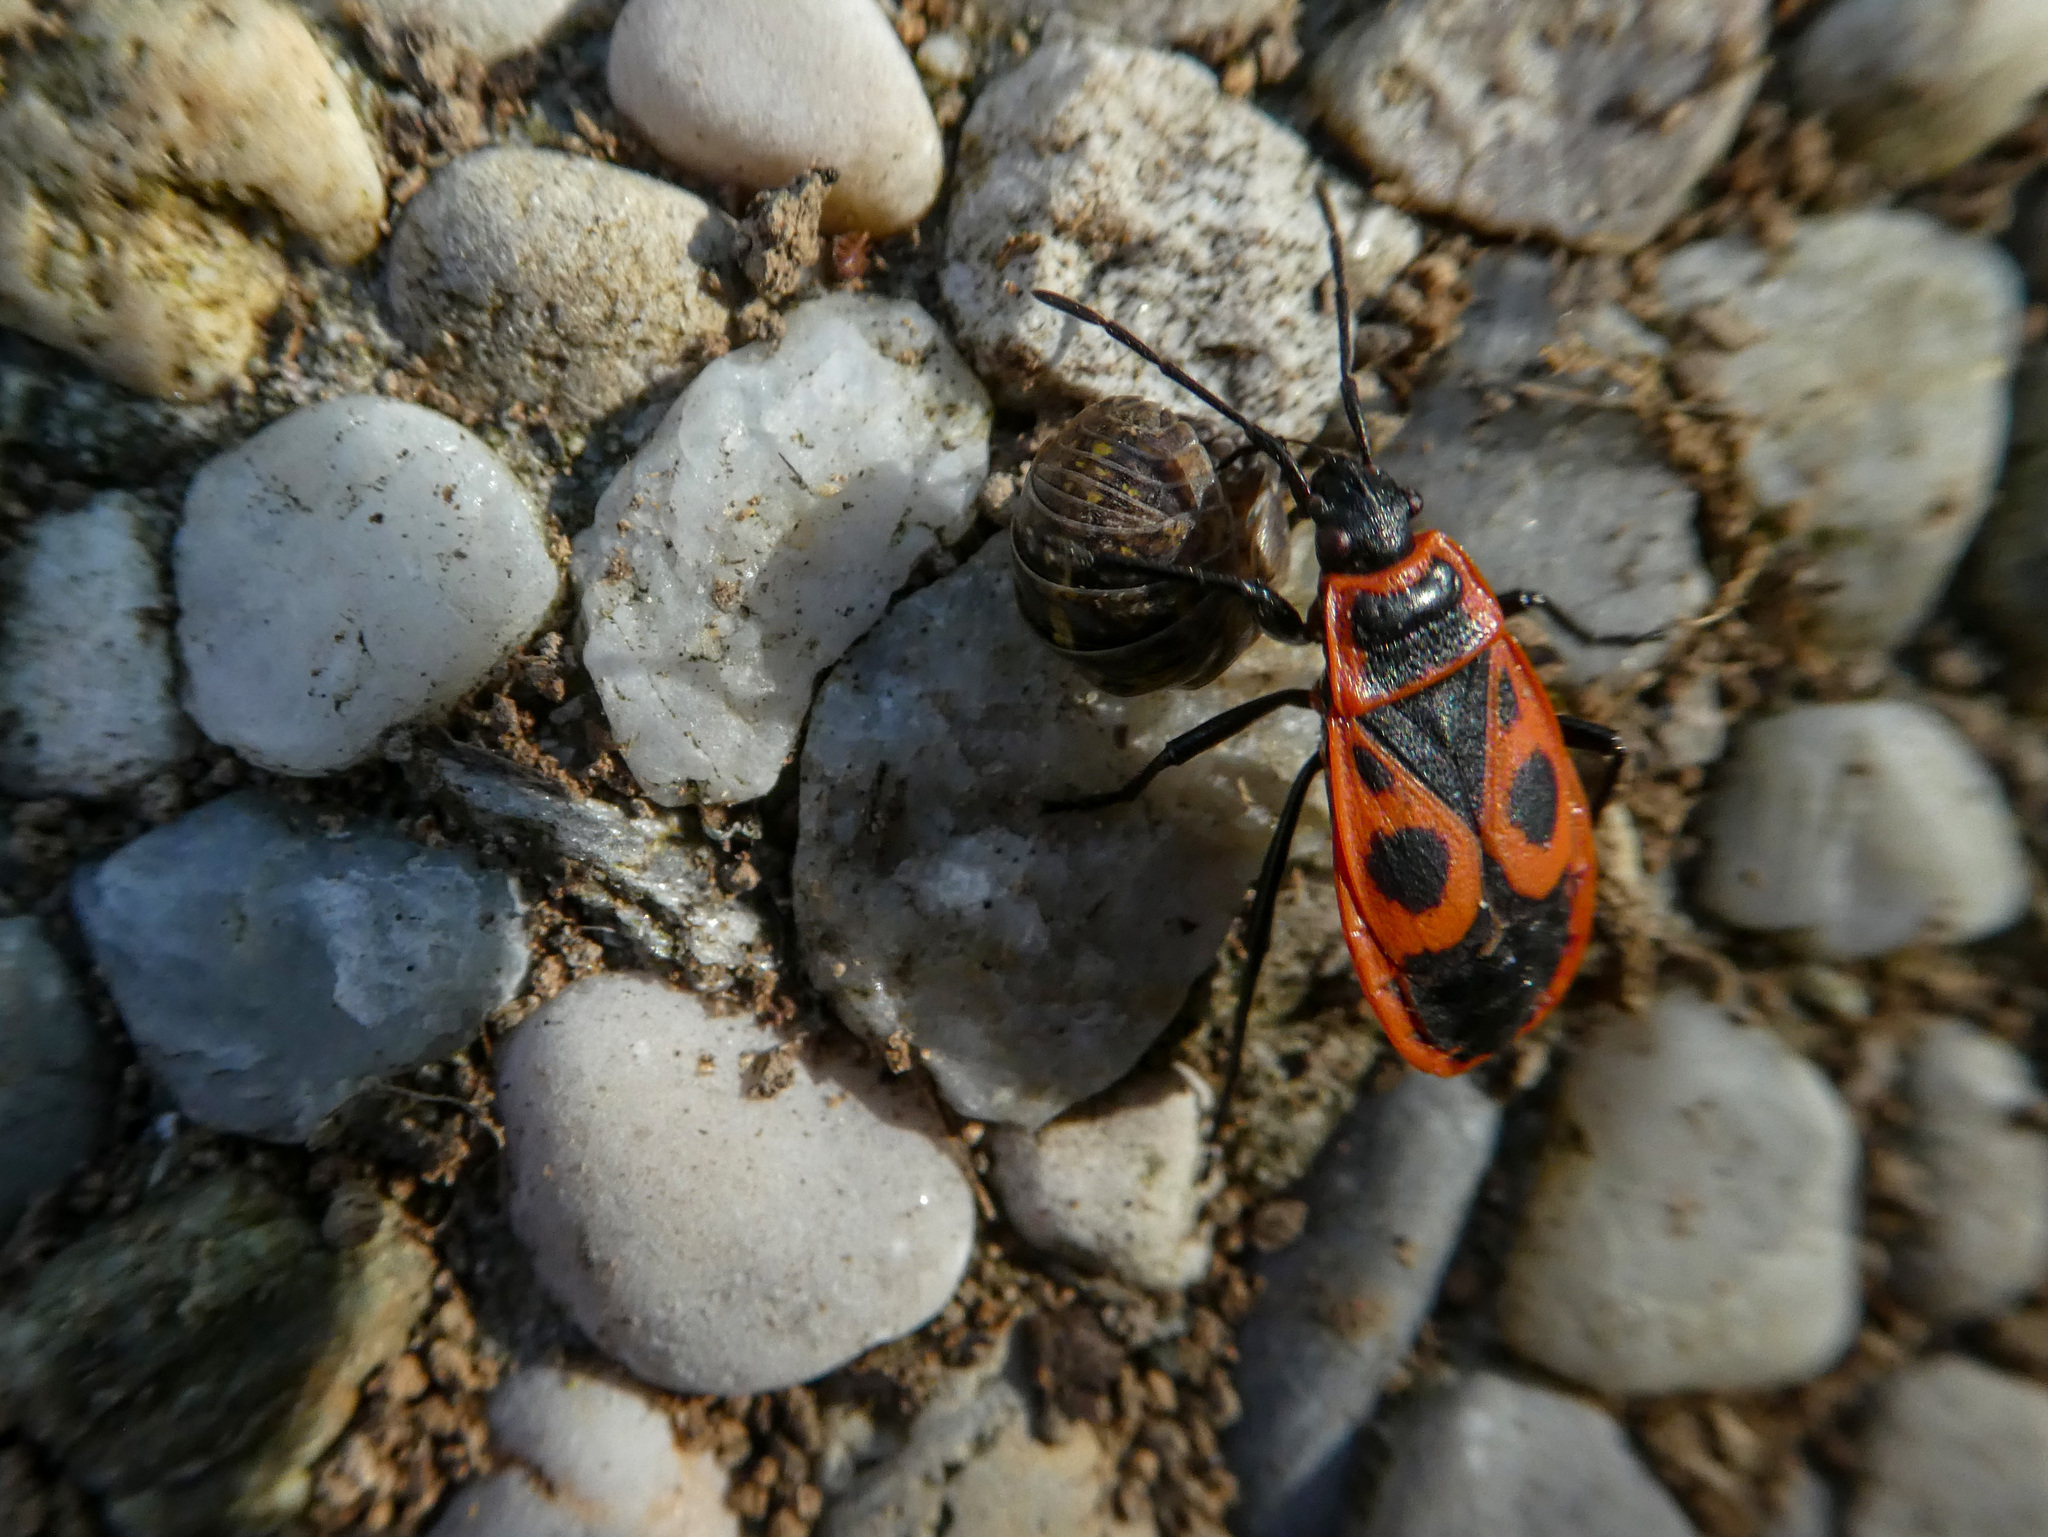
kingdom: Animalia
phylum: Arthropoda
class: Insecta
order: Hemiptera
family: Pyrrhocoridae
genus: Pyrrhocoris
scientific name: Pyrrhocoris apterus
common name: Firebug
